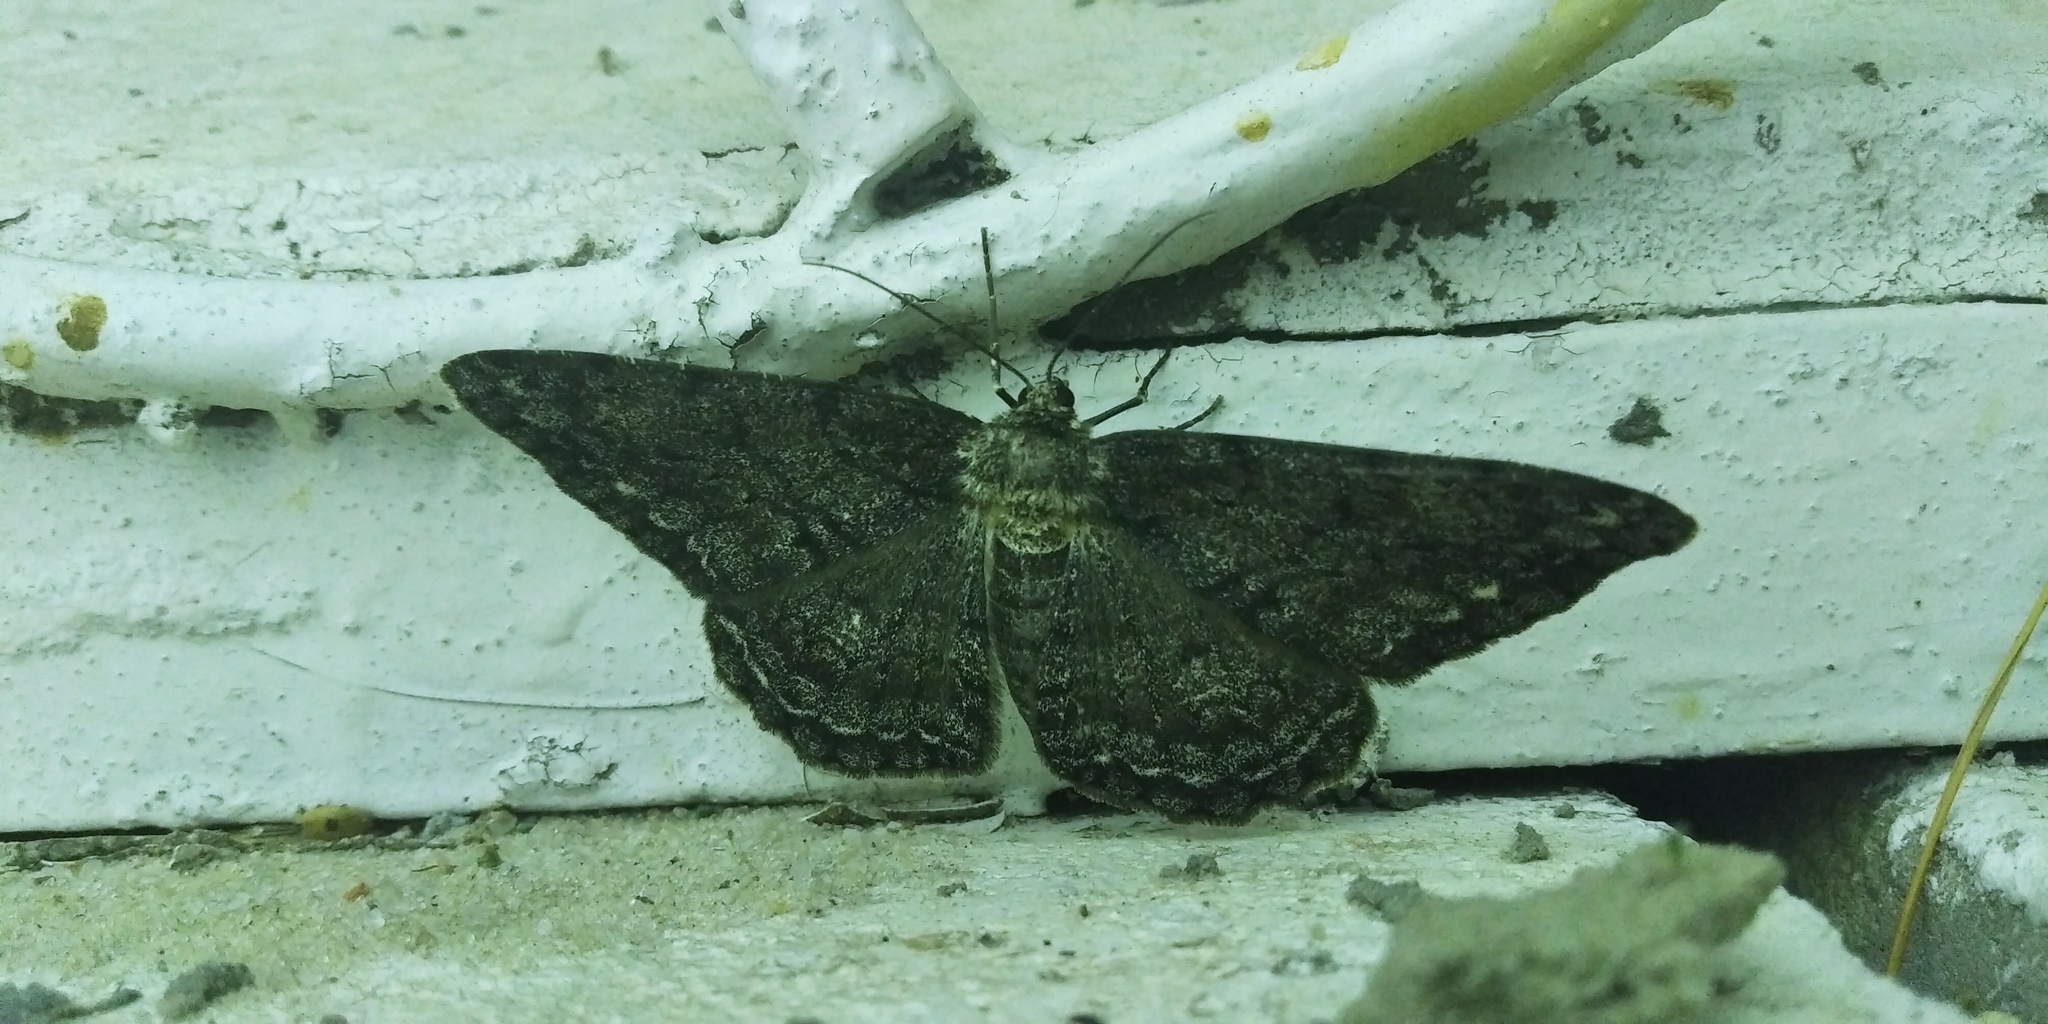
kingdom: Animalia
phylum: Arthropoda
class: Insecta
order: Lepidoptera
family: Geometridae
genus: Hypomecis
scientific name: Hypomecis roboraria
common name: Great oak beauty
